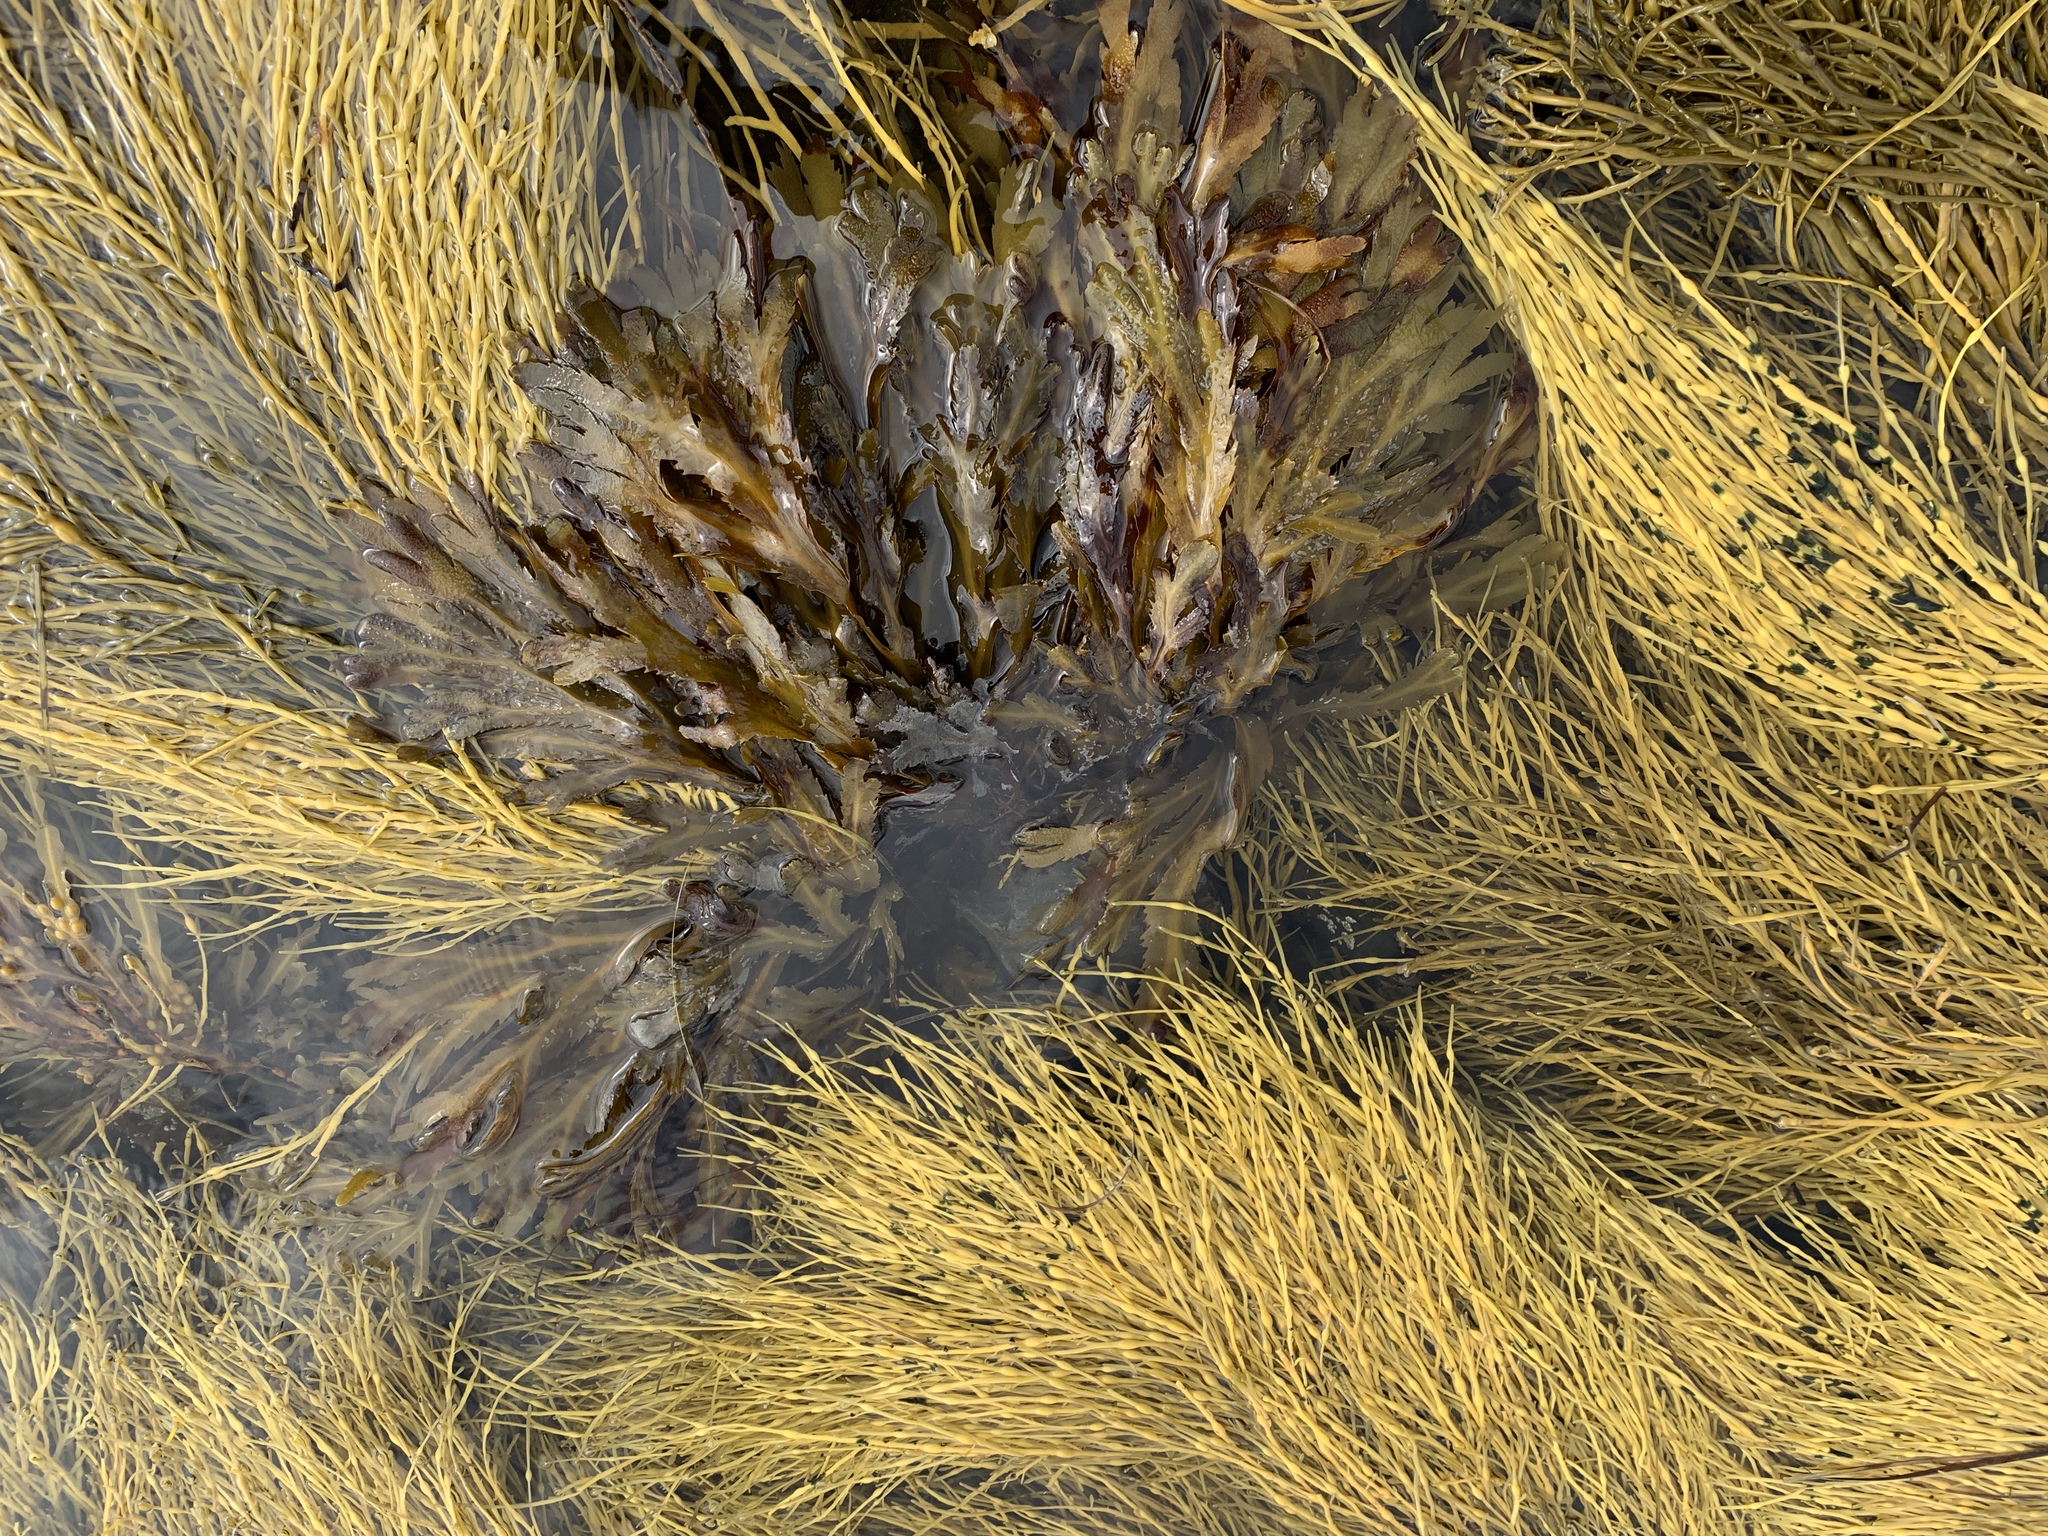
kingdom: Chromista
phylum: Ochrophyta
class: Phaeophyceae
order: Fucales
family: Fucaceae
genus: Fucus
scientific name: Fucus serratus
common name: Toothed wrack
